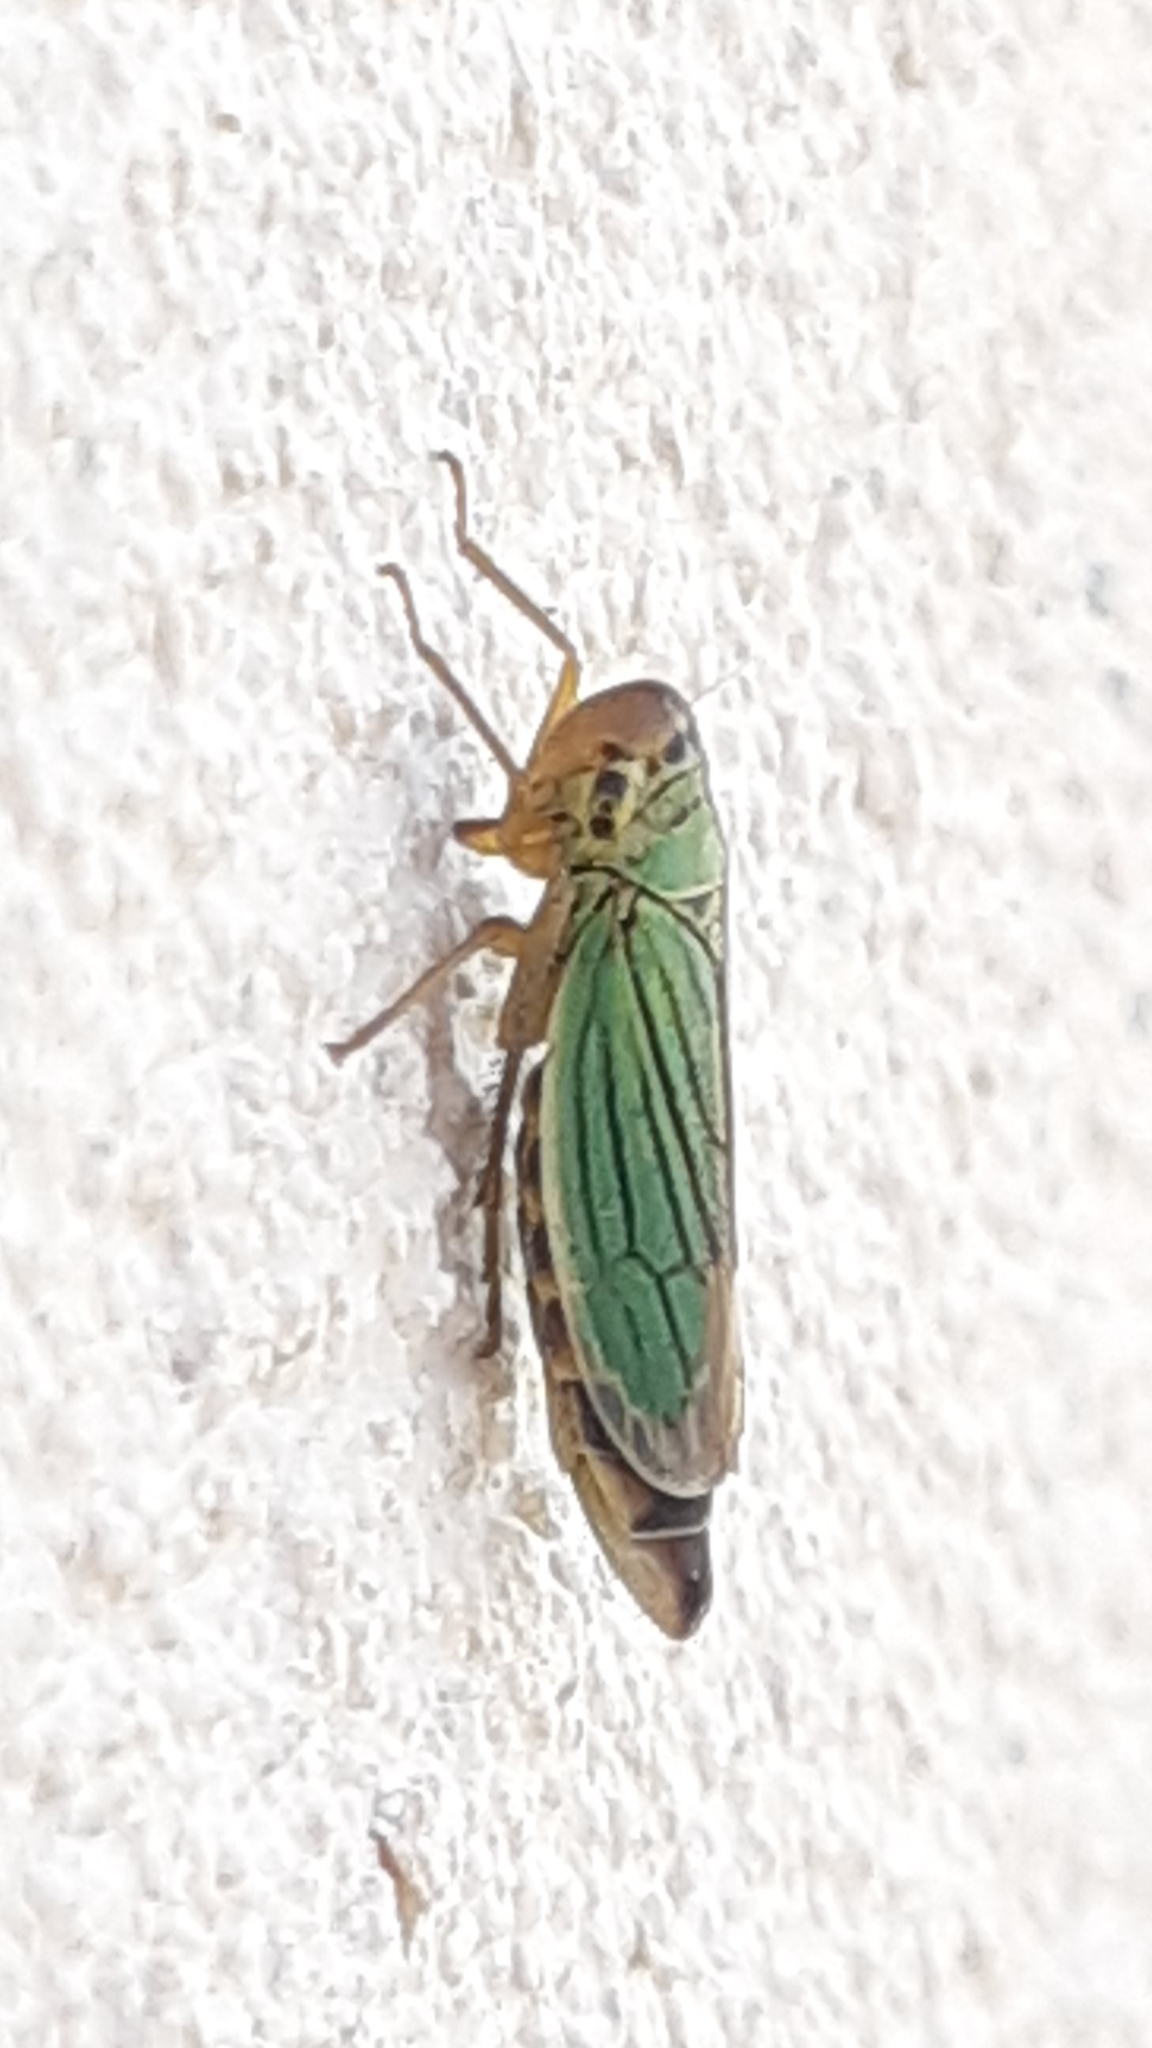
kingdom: Animalia
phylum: Arthropoda
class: Insecta
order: Hemiptera
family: Cicadellidae
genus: Cicadella
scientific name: Cicadella viridis
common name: Leafhopper
